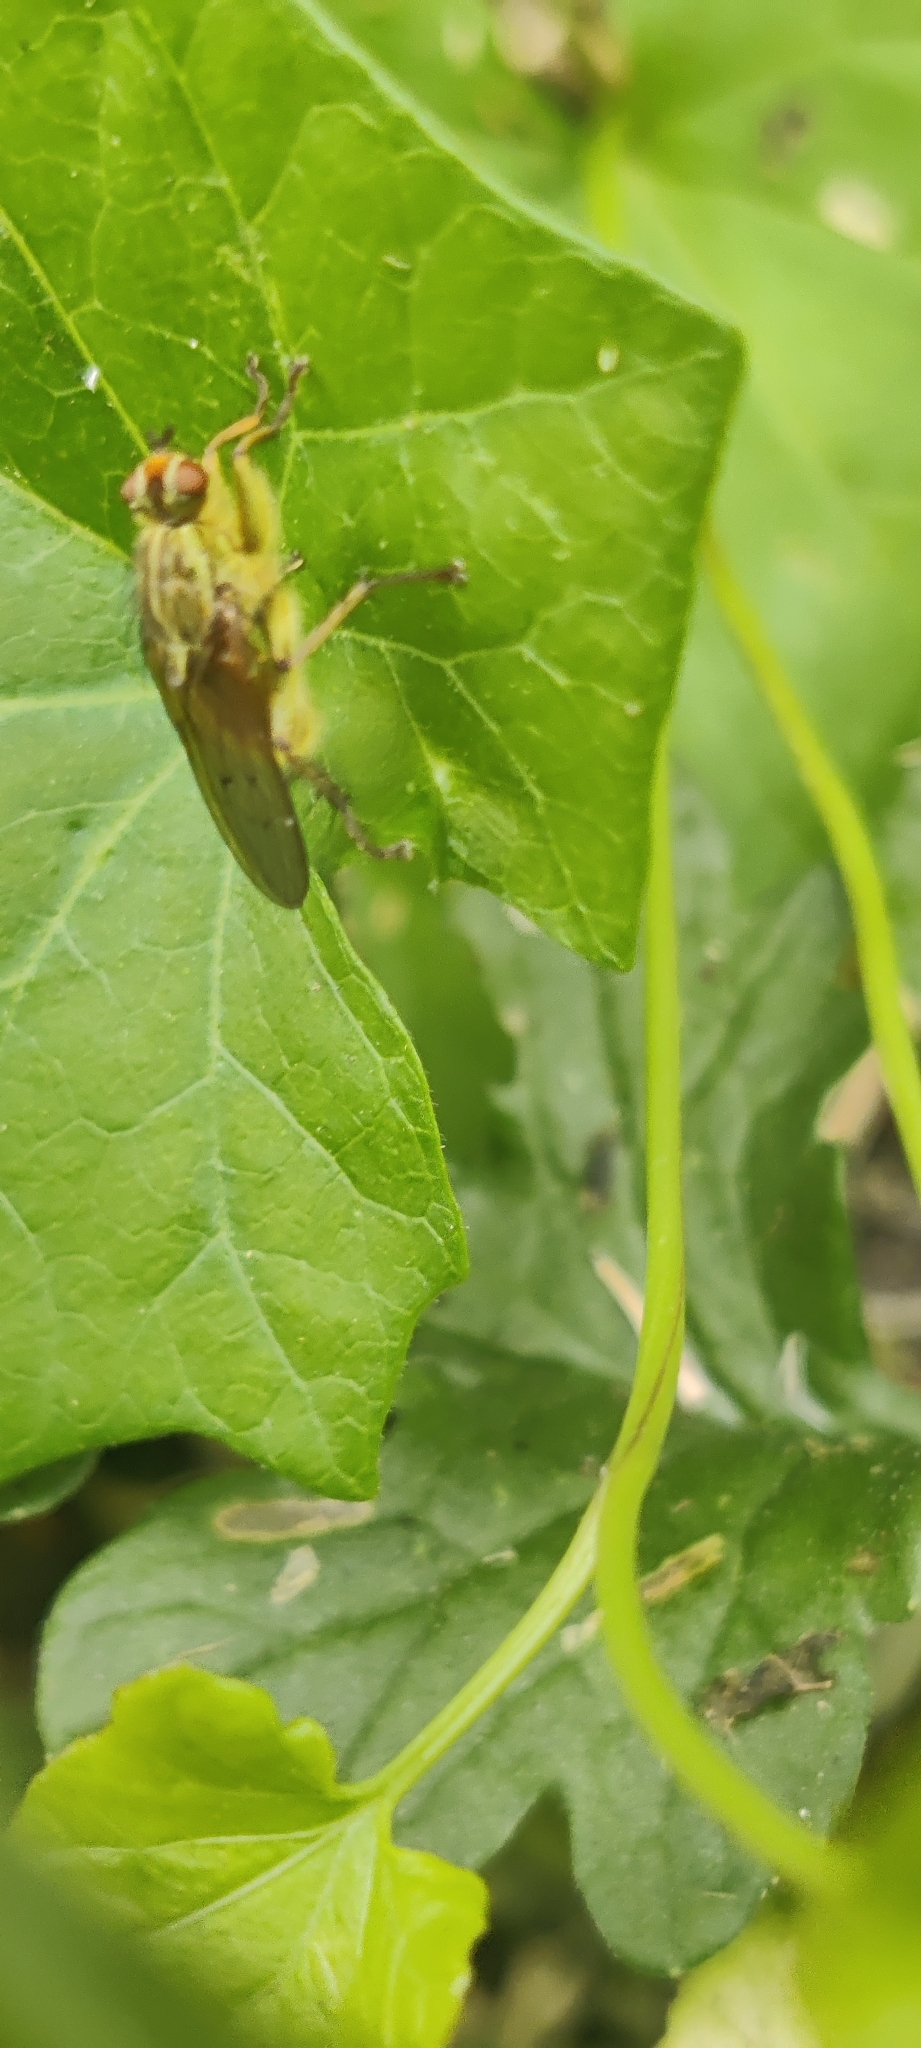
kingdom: Animalia
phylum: Arthropoda
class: Insecta
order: Diptera
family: Scathophagidae
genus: Scathophaga
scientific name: Scathophaga stercoraria
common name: Yellow dung fly
